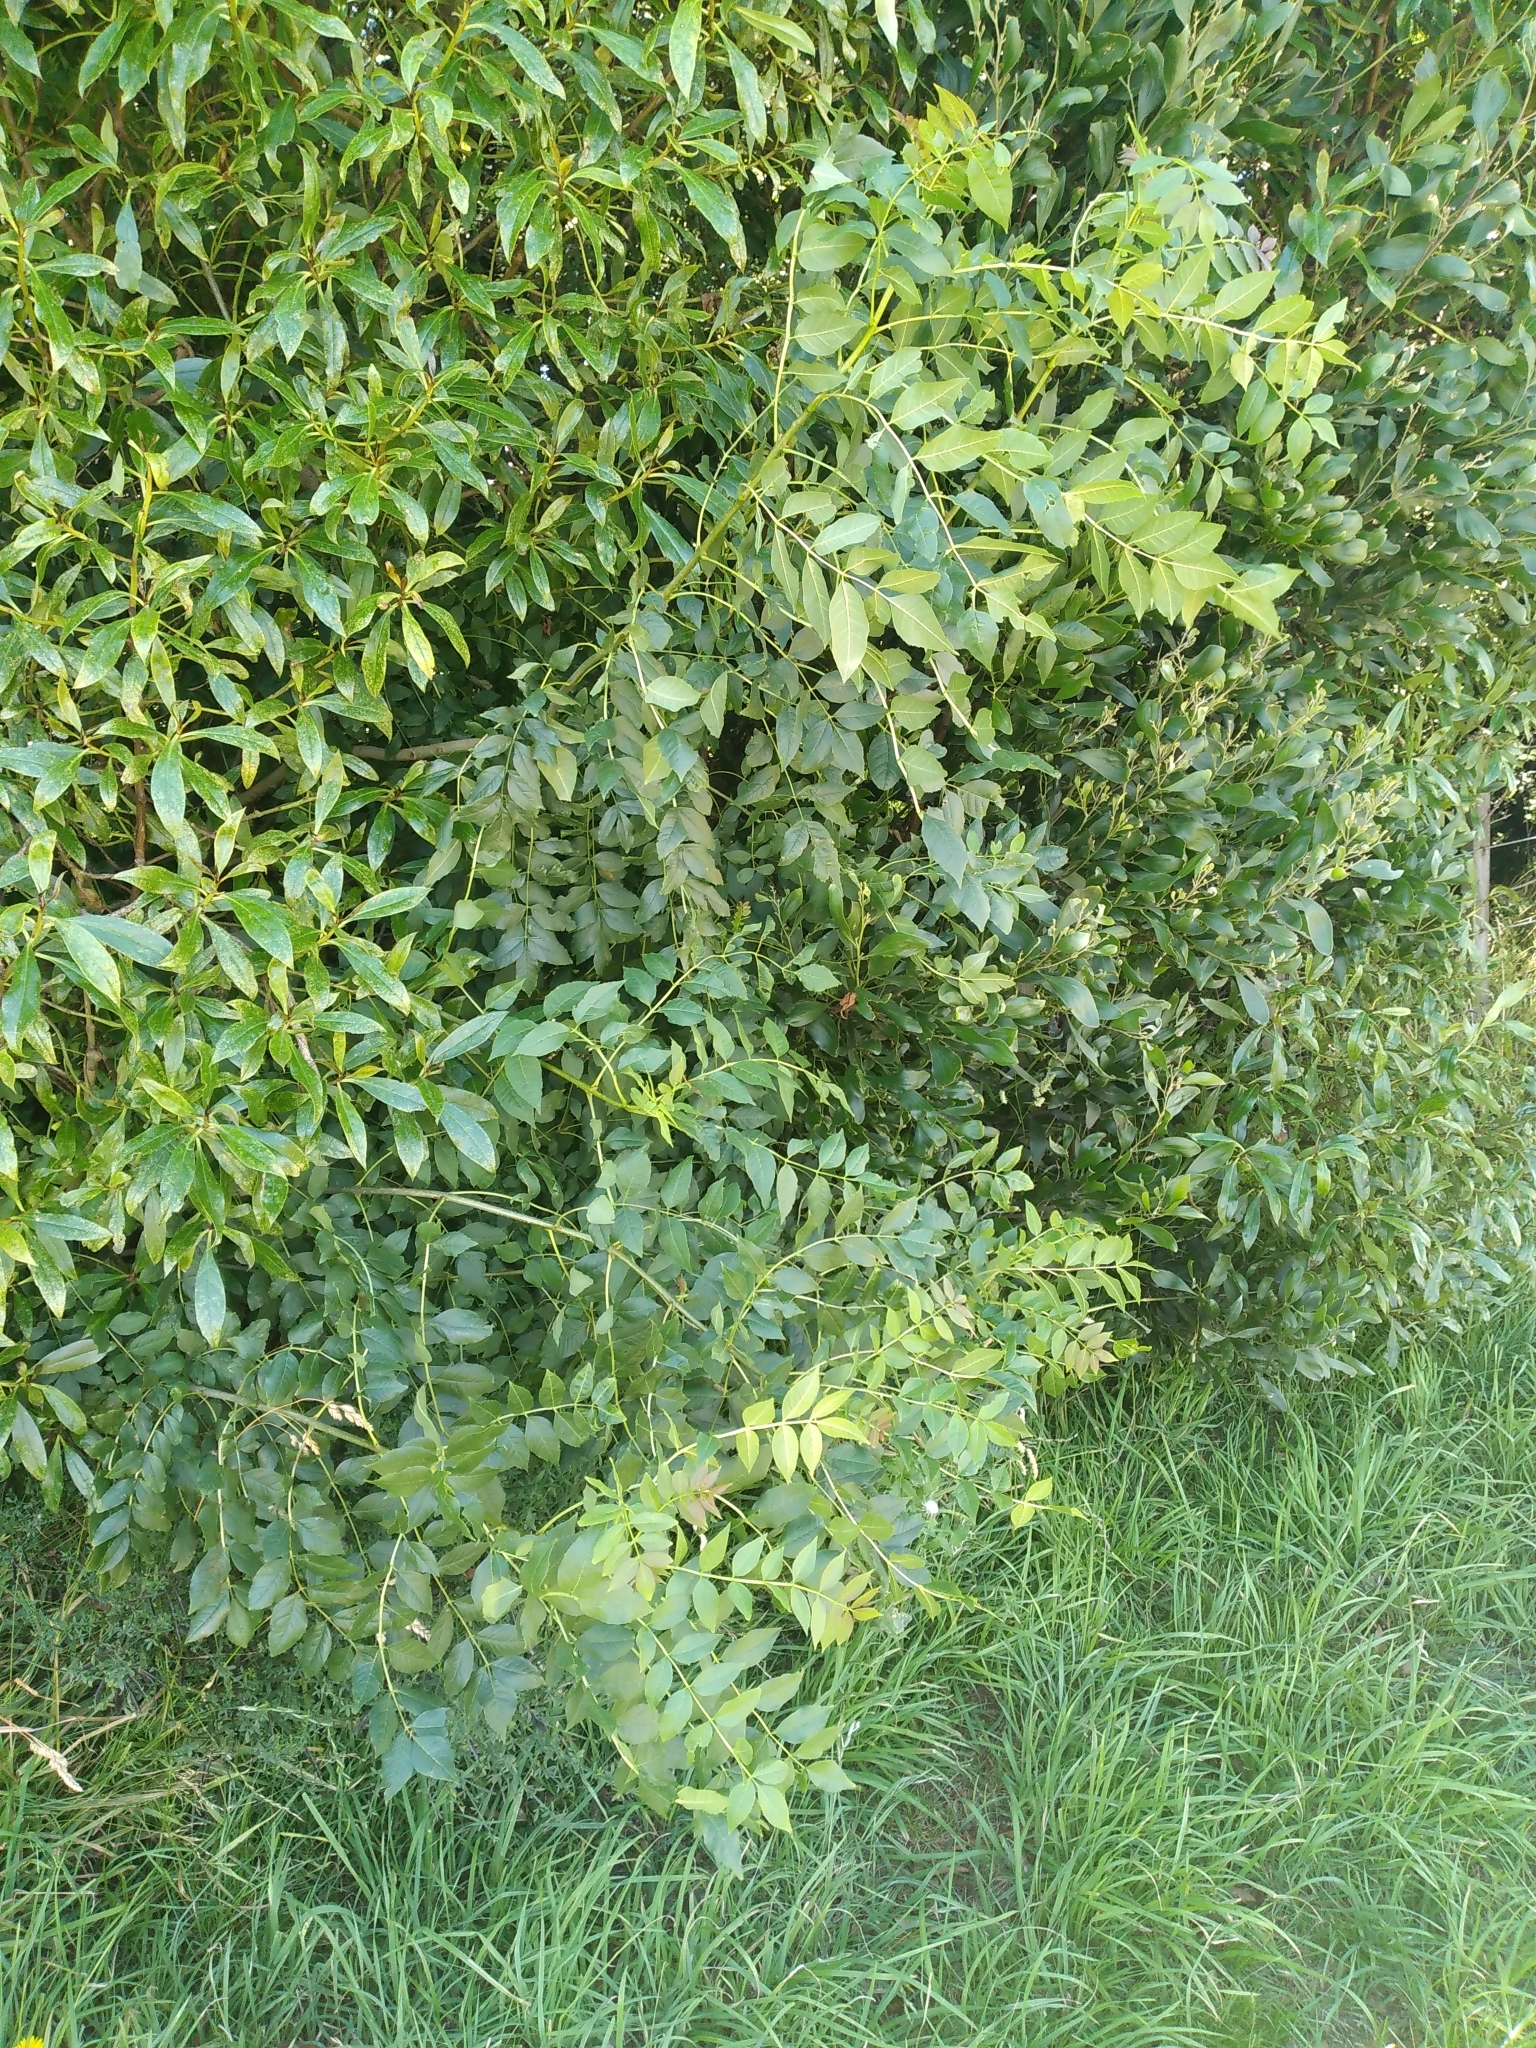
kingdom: Plantae
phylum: Tracheophyta
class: Magnoliopsida
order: Lamiales
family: Oleaceae
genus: Fraxinus
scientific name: Fraxinus excelsior
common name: European ash
